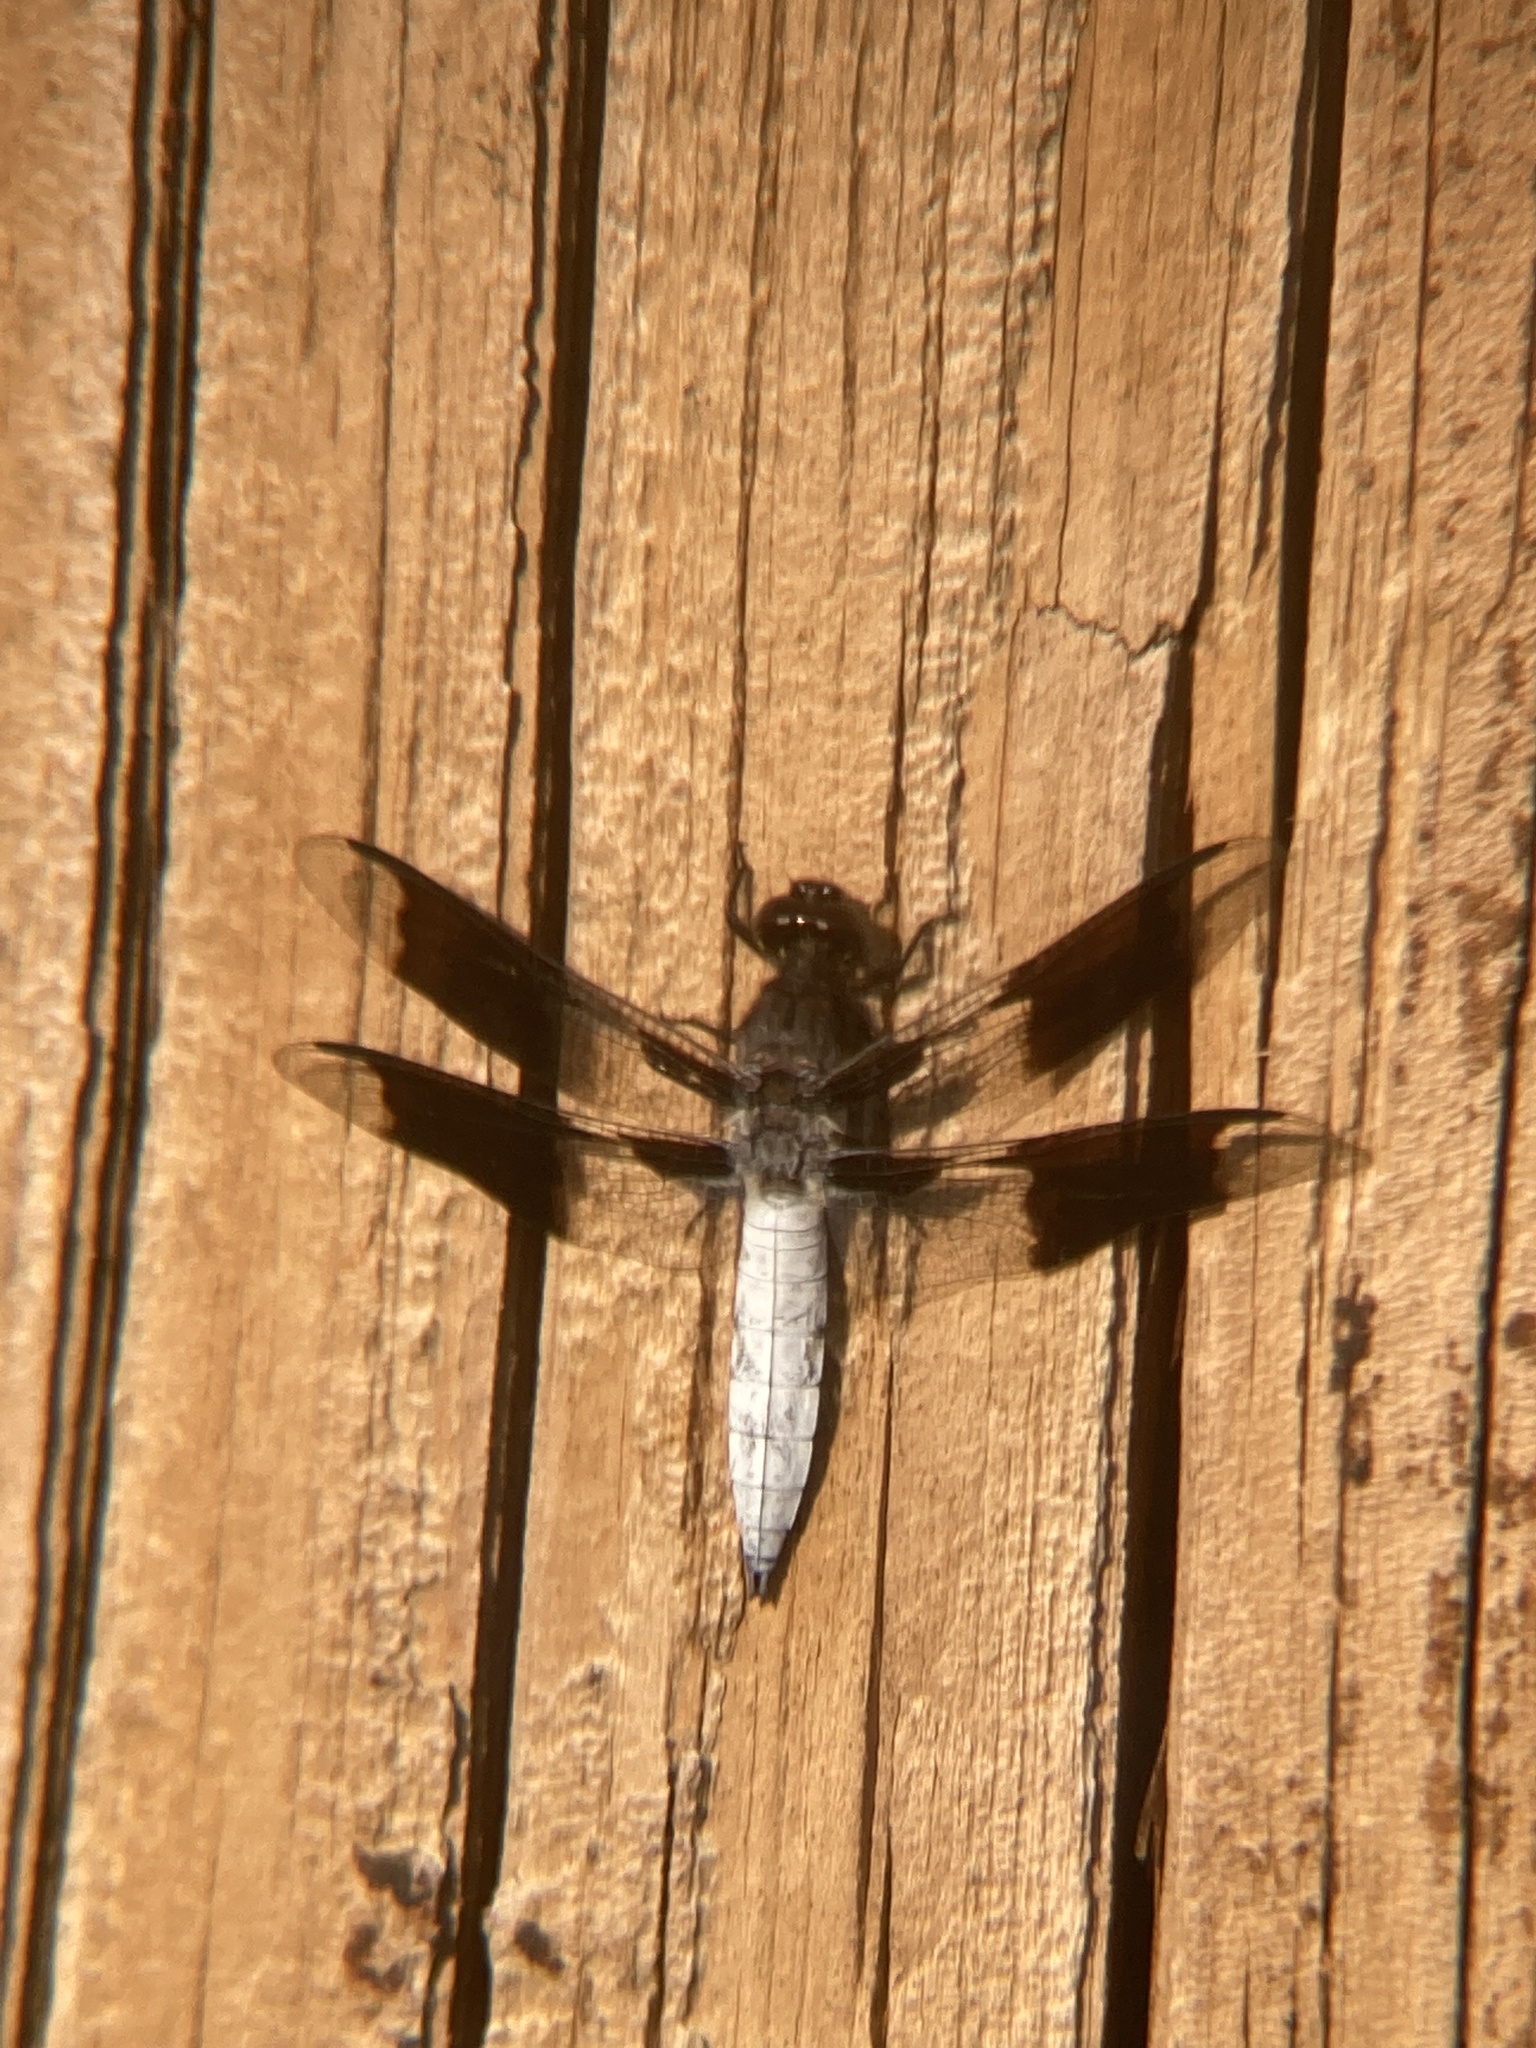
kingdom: Animalia
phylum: Arthropoda
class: Insecta
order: Odonata
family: Libellulidae
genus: Plathemis
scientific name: Plathemis lydia
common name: Common whitetail
